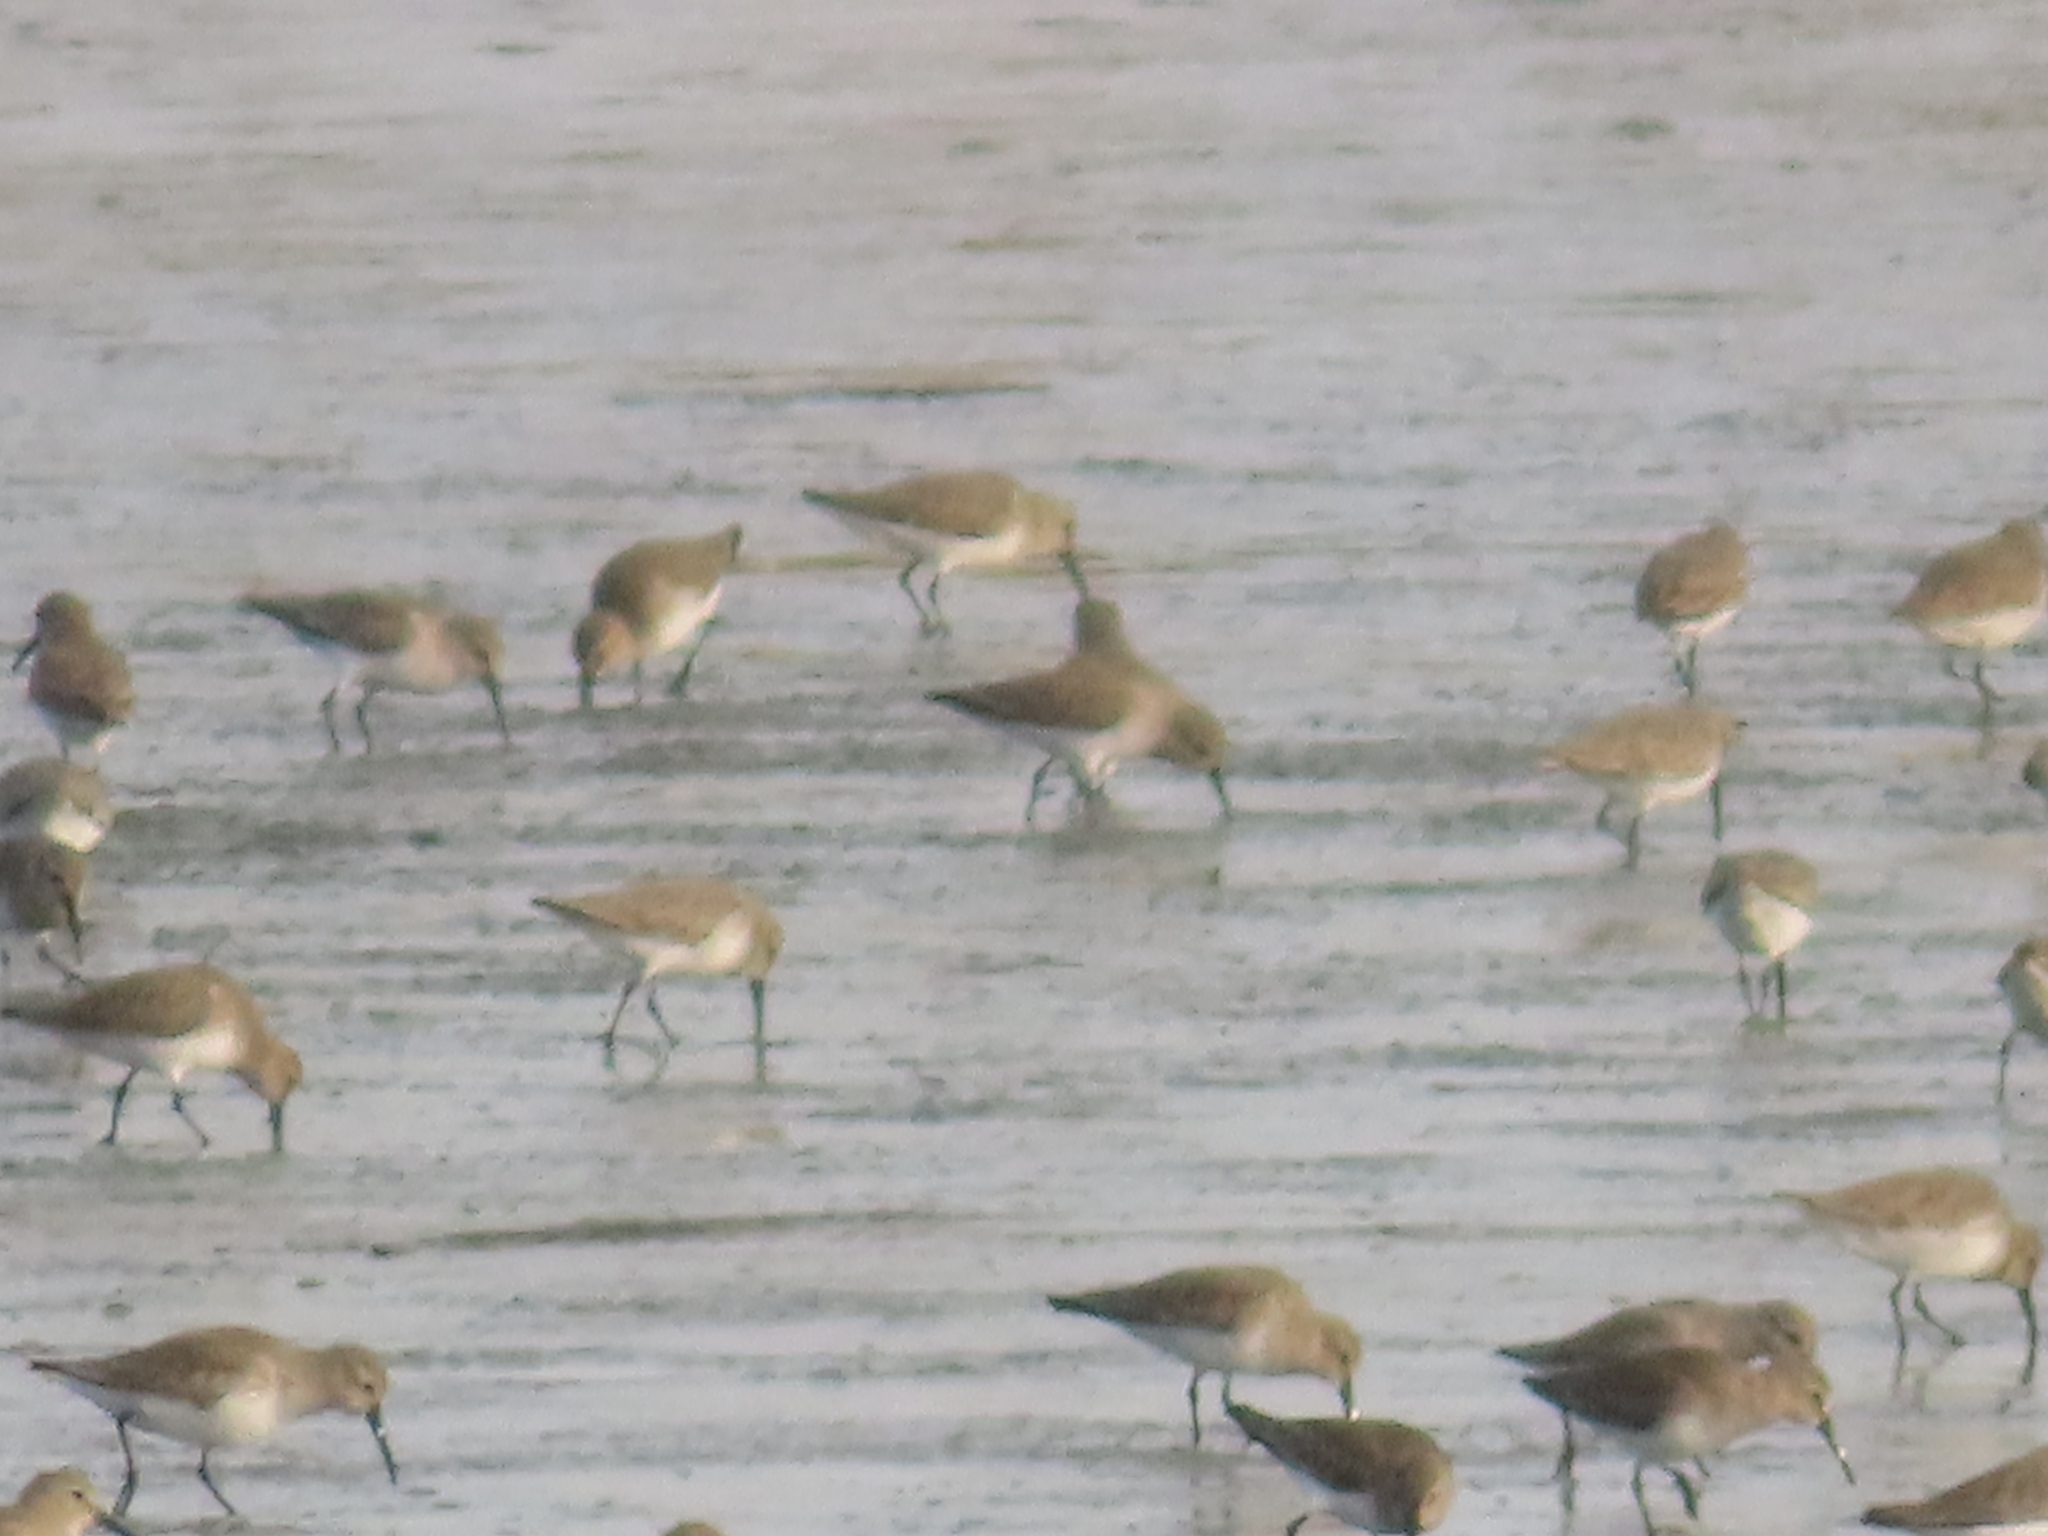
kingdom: Animalia
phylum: Chordata
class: Aves
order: Charadriiformes
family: Scolopacidae
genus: Calidris
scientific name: Calidris alpina
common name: Dunlin
